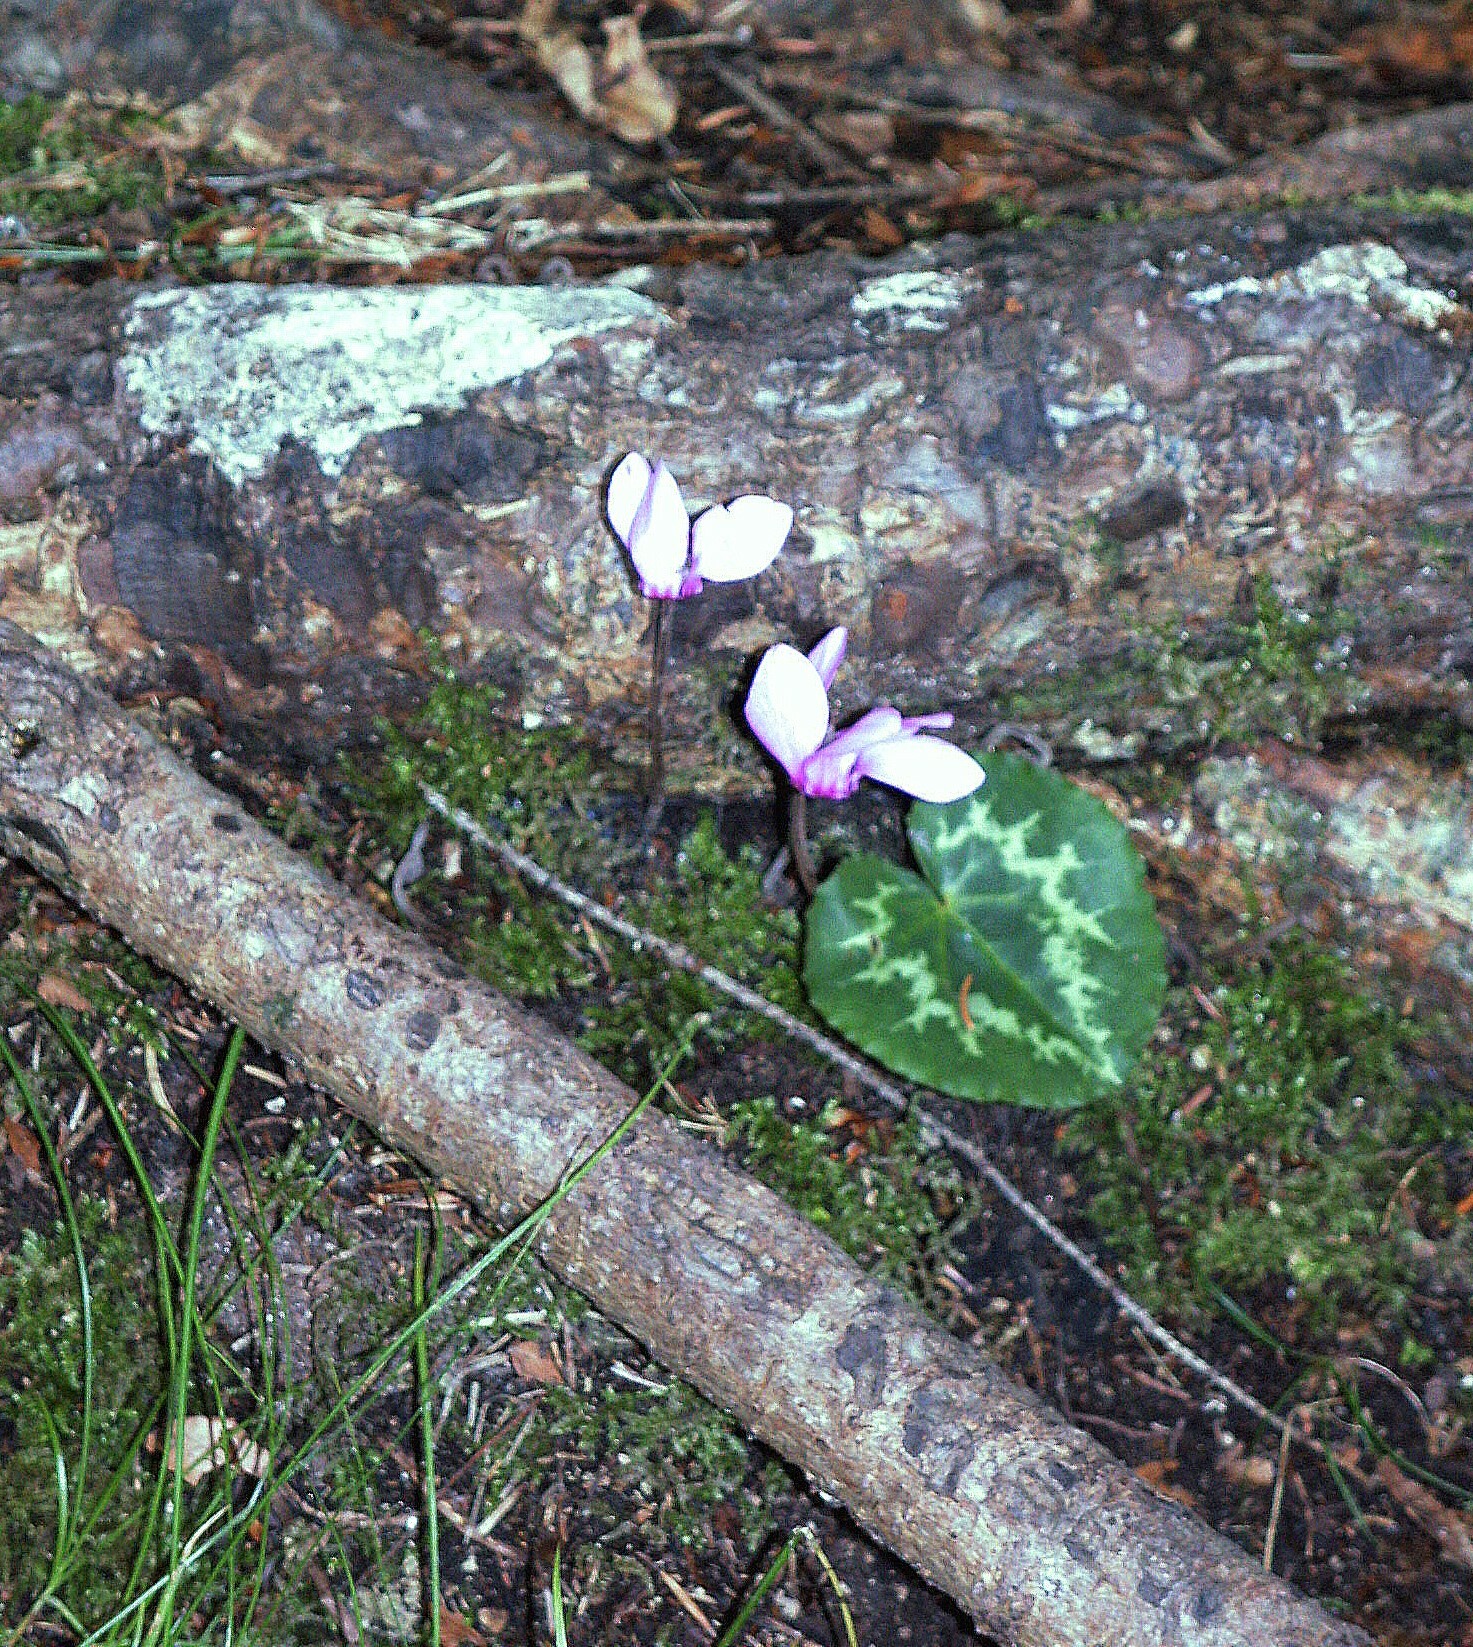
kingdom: Plantae
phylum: Tracheophyta
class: Magnoliopsida
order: Ericales
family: Primulaceae
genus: Cyclamen
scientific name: Cyclamen purpurascens
